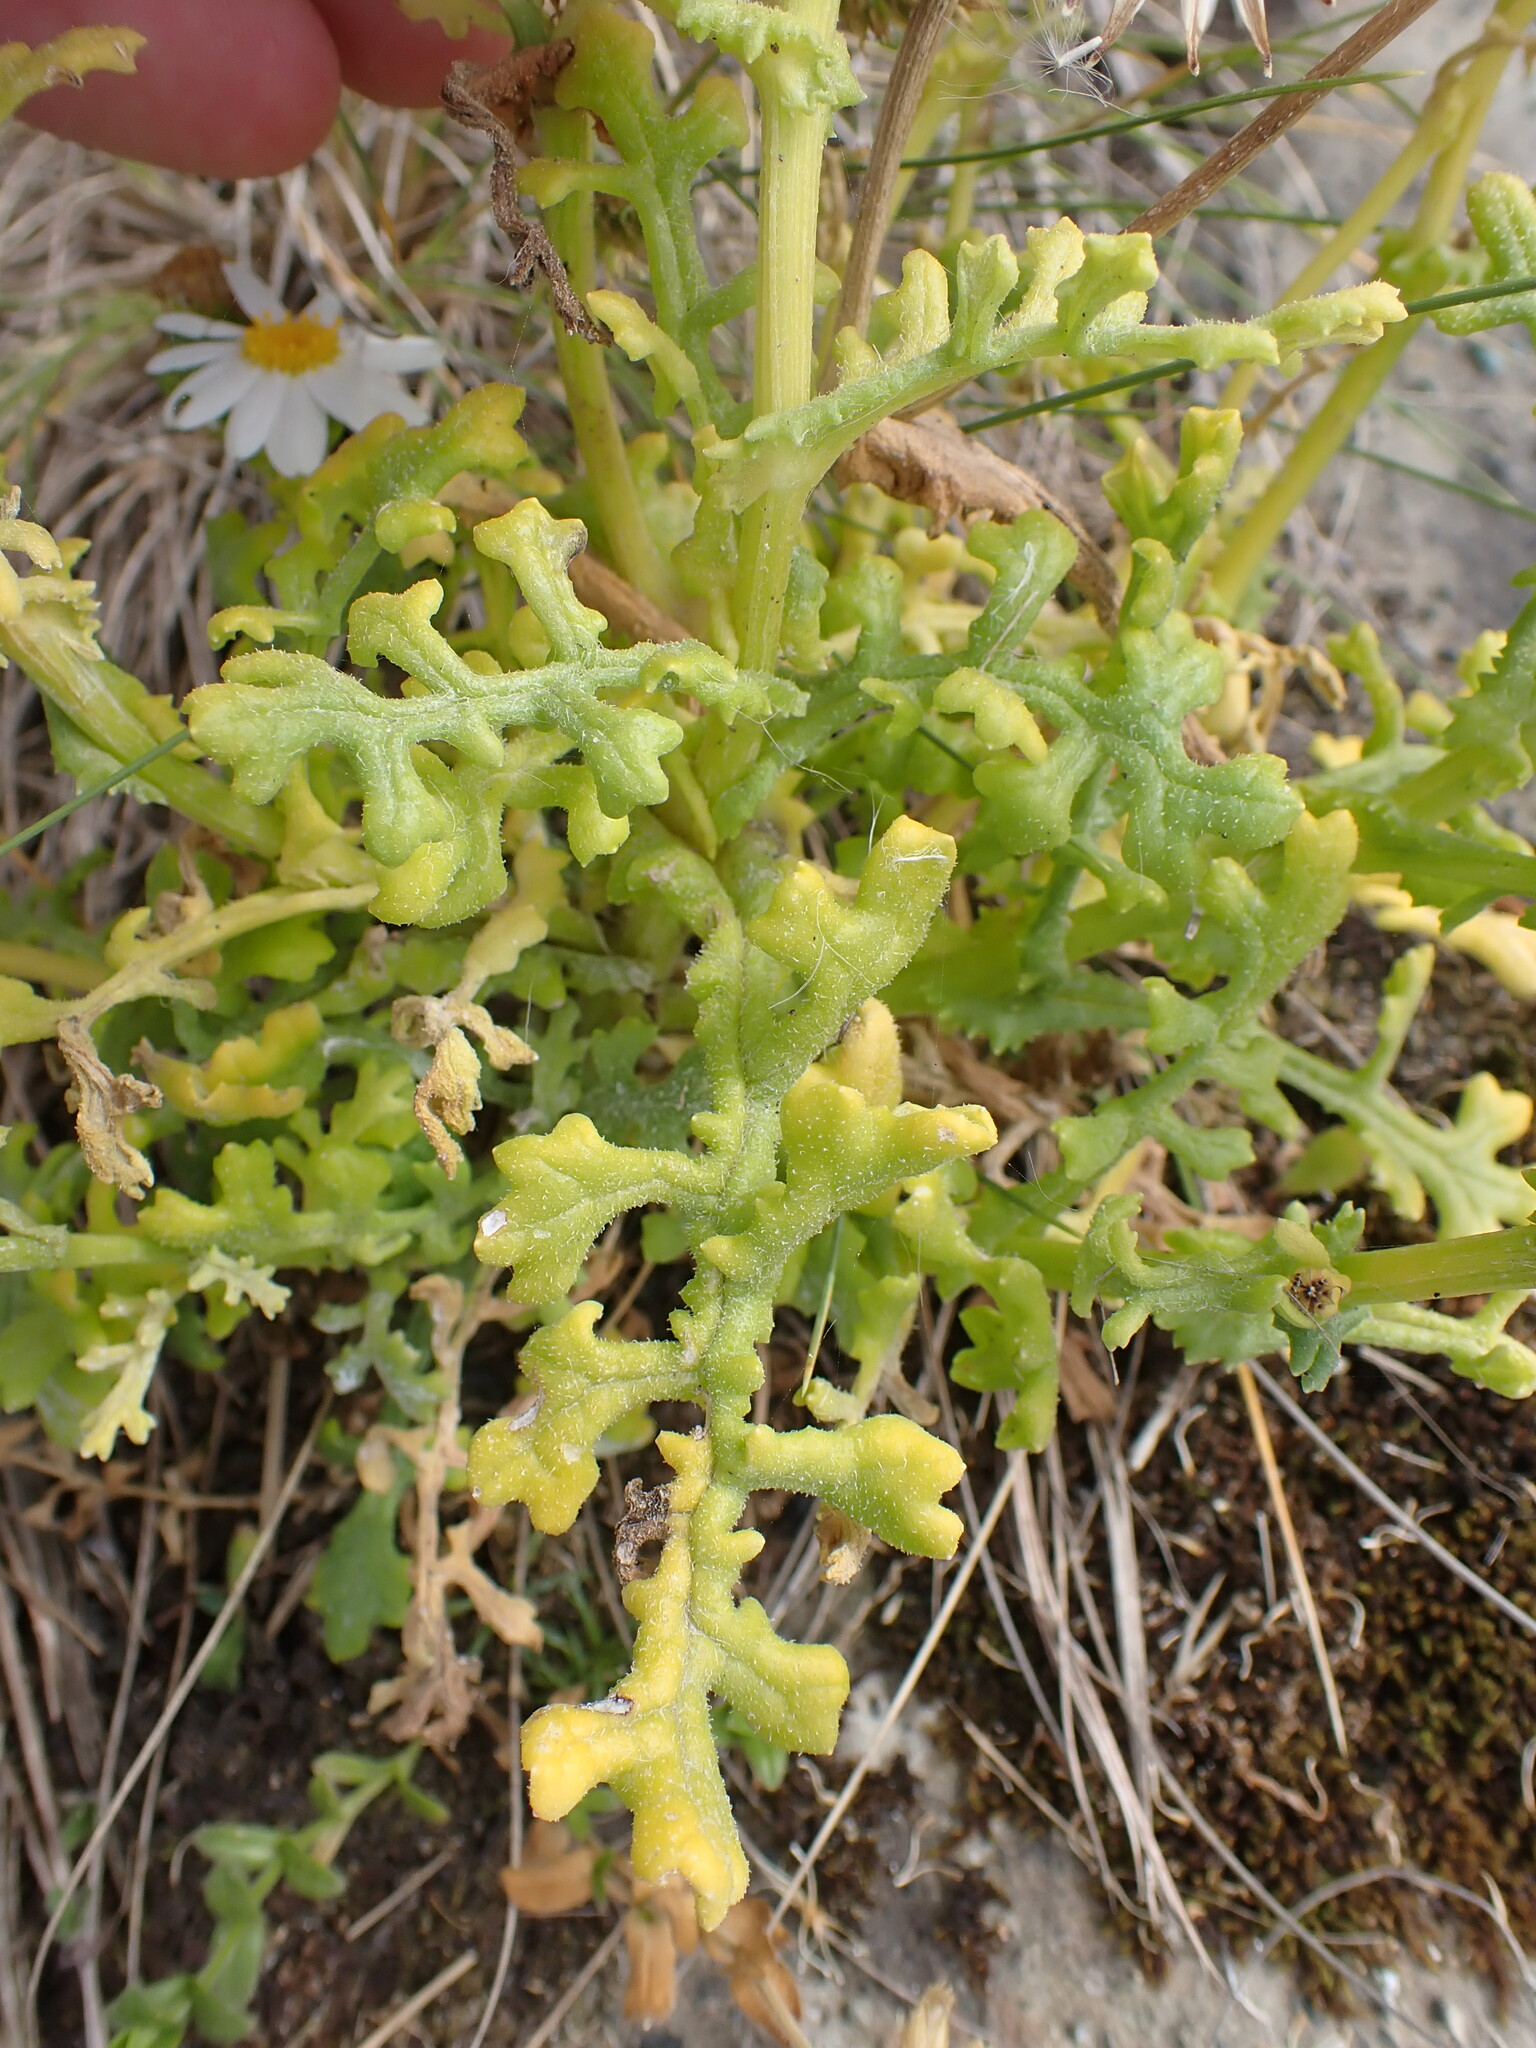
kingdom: Plantae
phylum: Tracheophyta
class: Magnoliopsida
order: Asterales
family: Asteraceae
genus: Senecio
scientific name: Senecio elegans
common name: Purple groundsel
